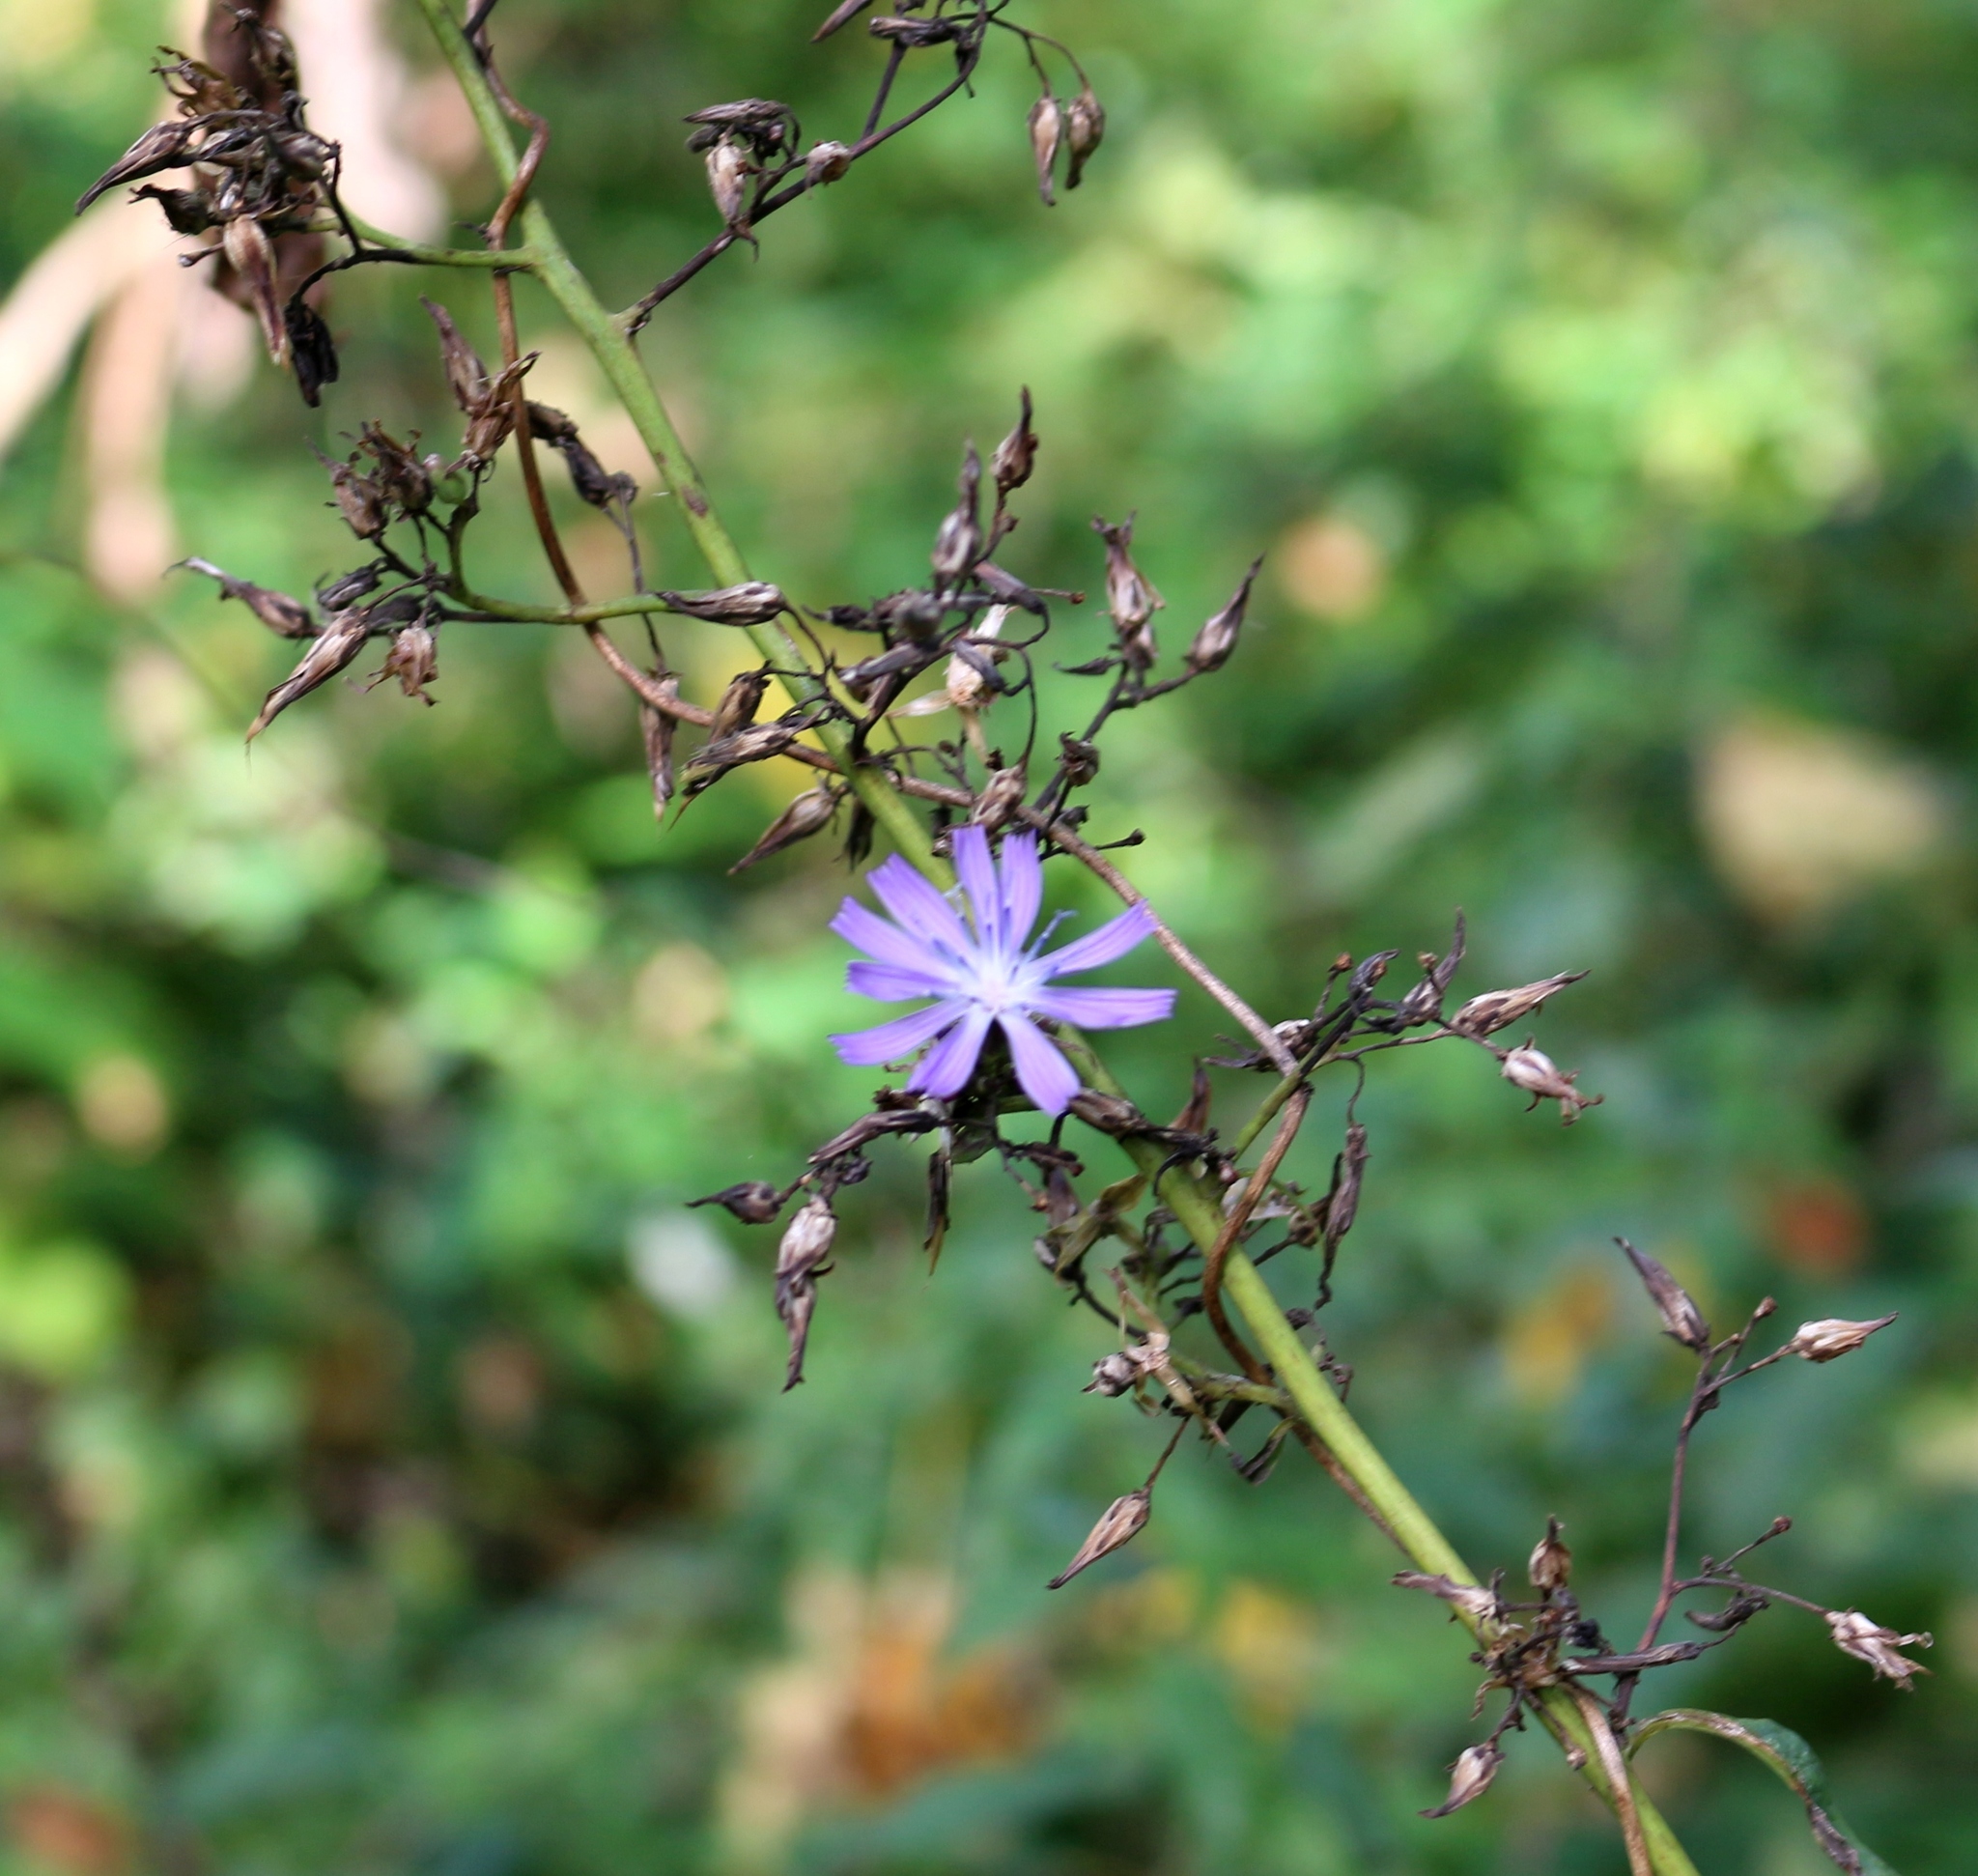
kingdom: Plantae
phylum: Tracheophyta
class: Magnoliopsida
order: Asterales
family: Asteraceae
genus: Cicerbita
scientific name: Cicerbita prenanthoides
